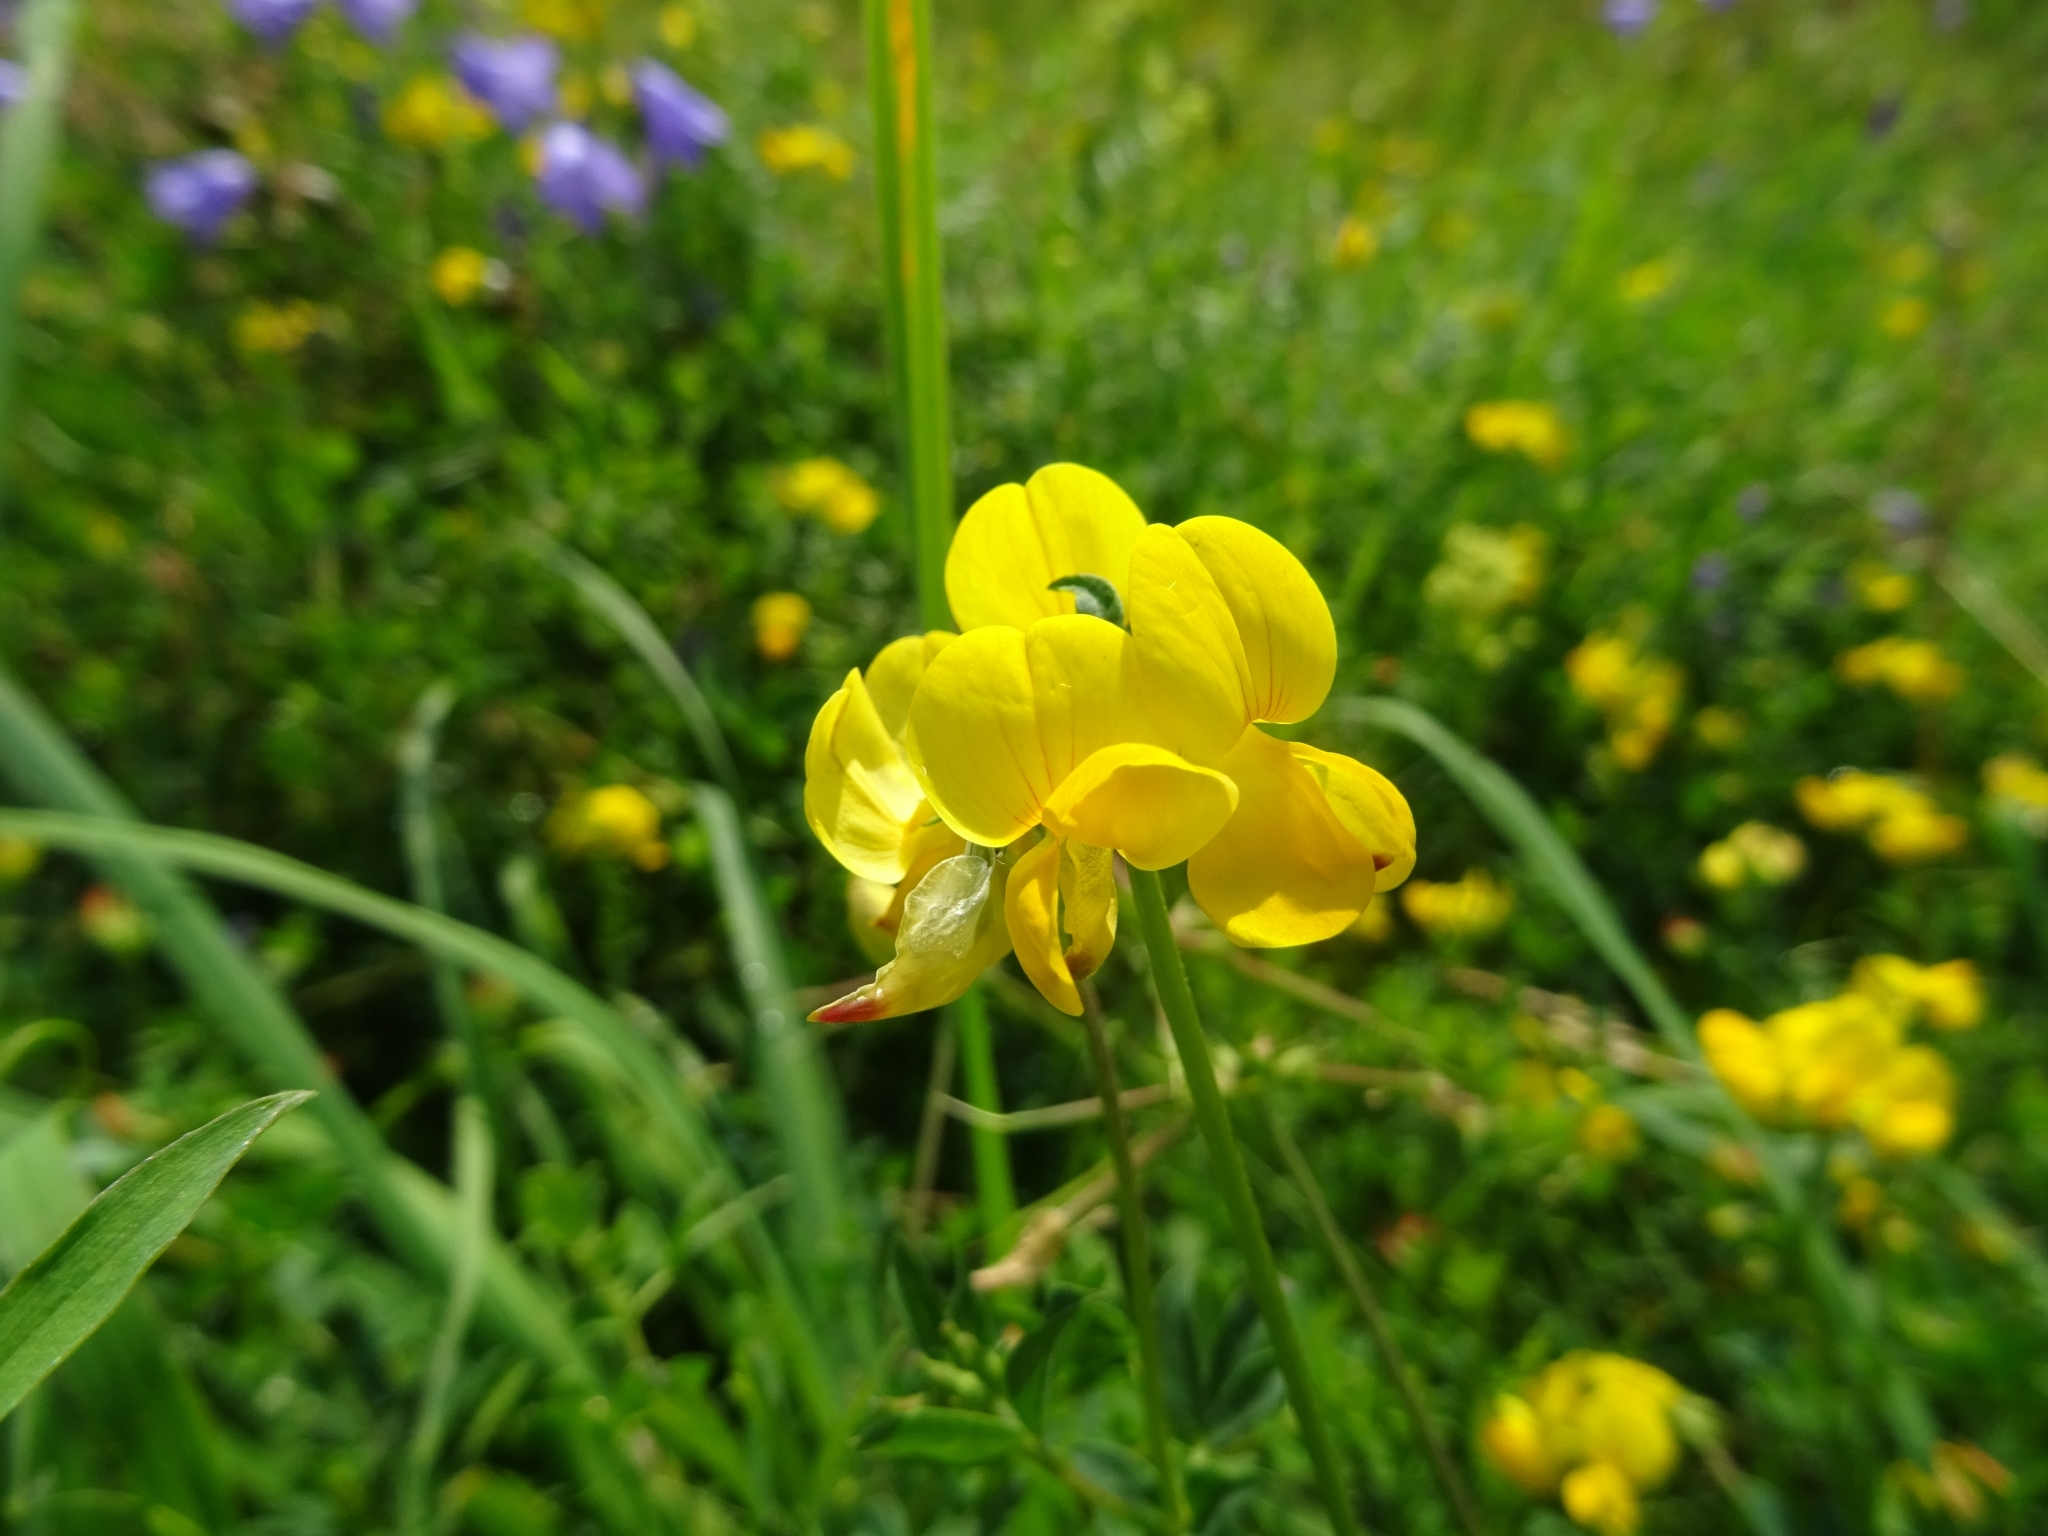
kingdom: Plantae
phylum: Tracheophyta
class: Magnoliopsida
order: Fabales
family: Fabaceae
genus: Lotus
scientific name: Lotus corniculatus
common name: Common bird's-foot-trefoil
